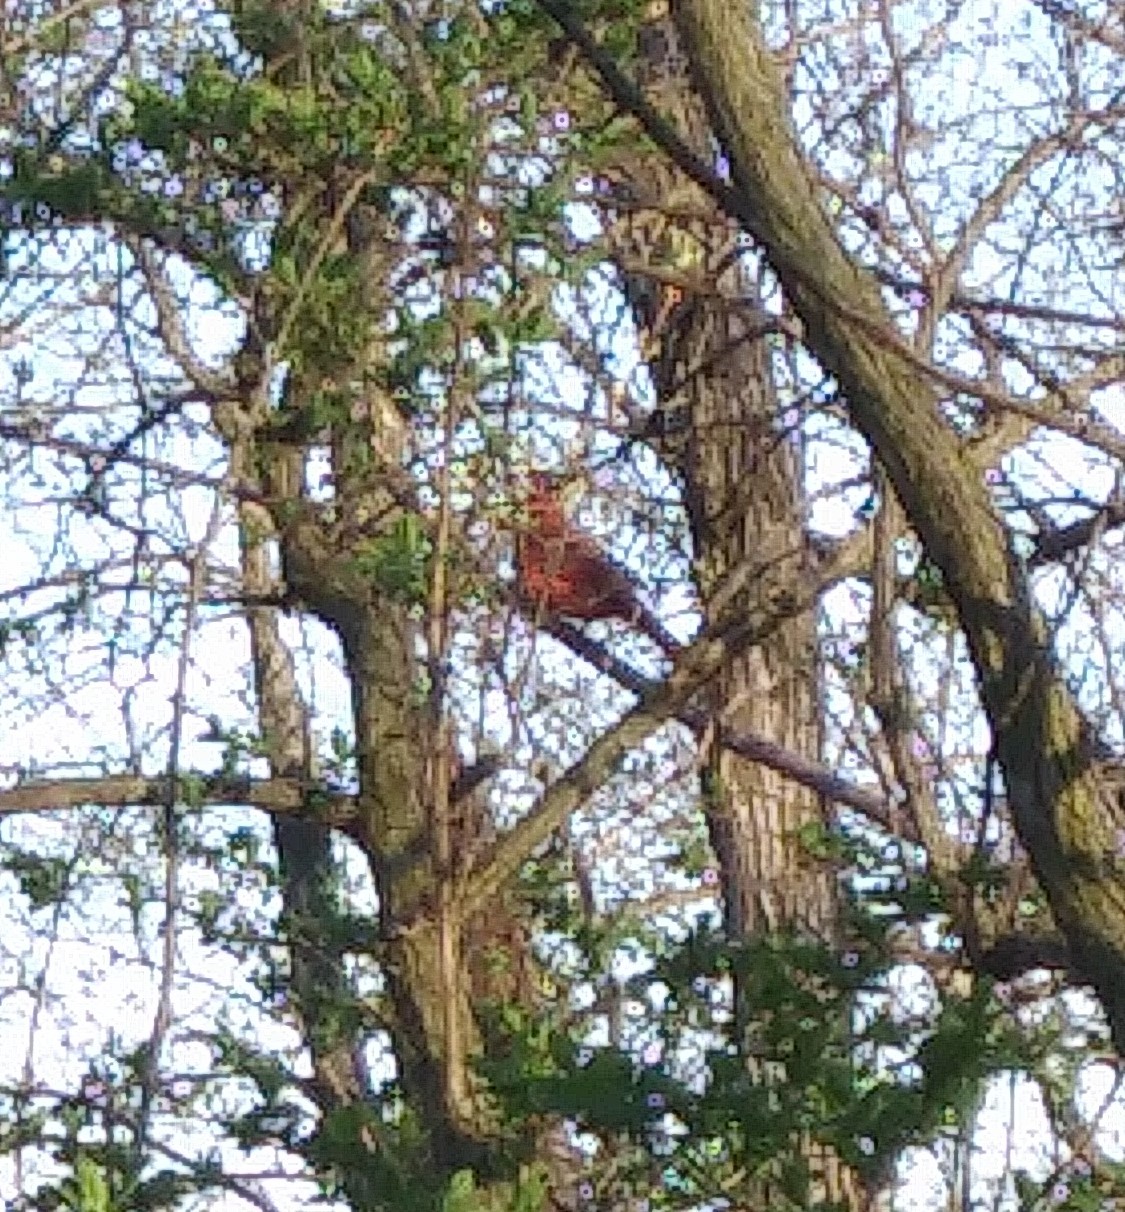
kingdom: Animalia
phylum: Chordata
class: Aves
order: Passeriformes
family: Cardinalidae
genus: Cardinalis
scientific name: Cardinalis cardinalis
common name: Northern cardinal
